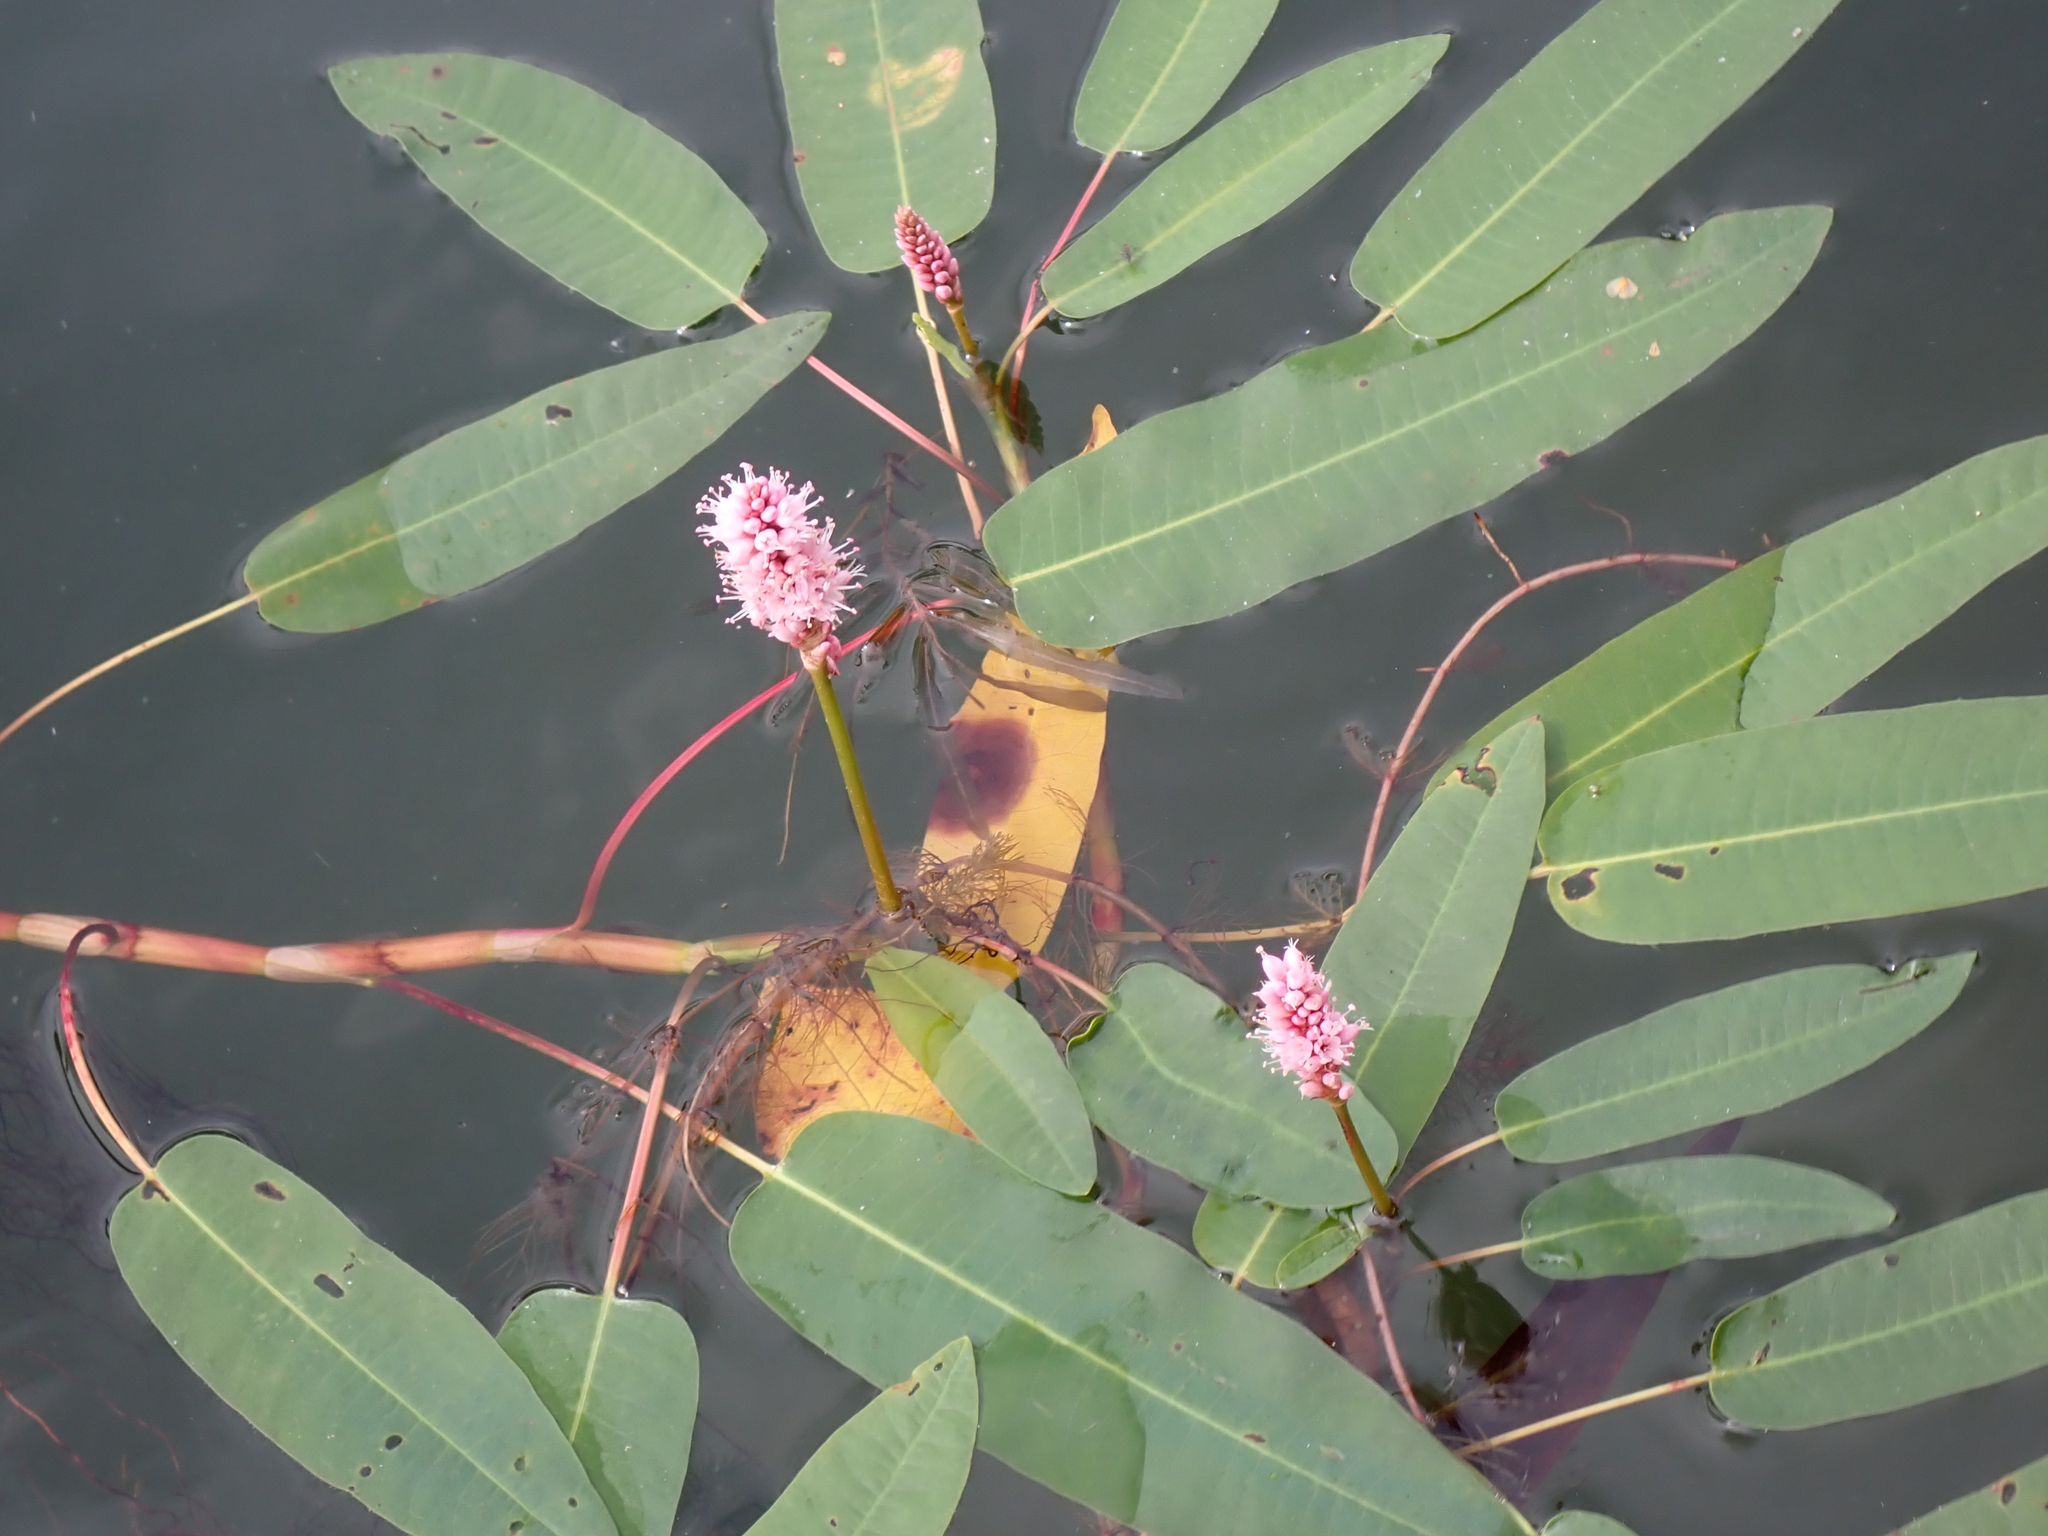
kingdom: Plantae
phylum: Tracheophyta
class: Magnoliopsida
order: Caryophyllales
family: Polygonaceae
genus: Persicaria
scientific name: Persicaria amphibia
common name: Amphibious bistort
